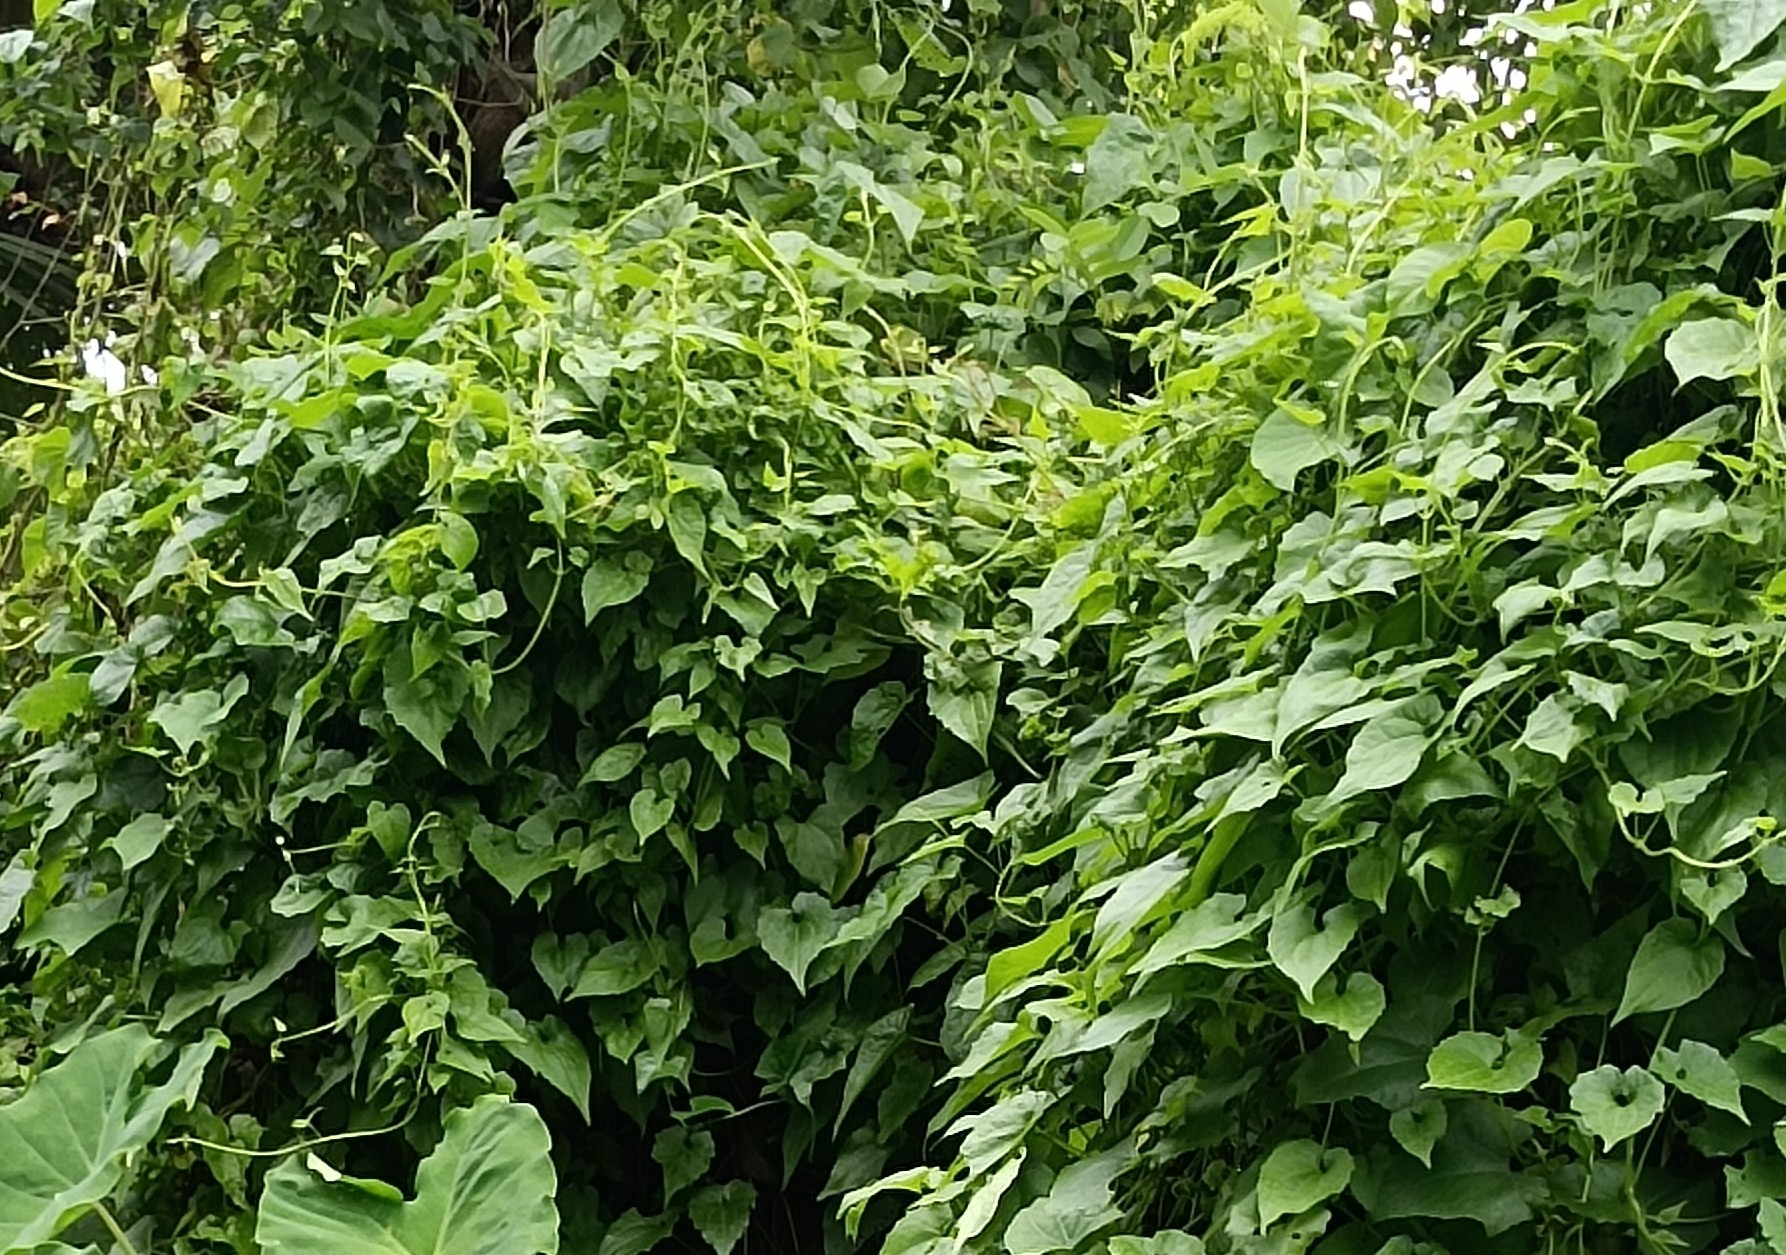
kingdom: Plantae
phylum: Tracheophyta
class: Magnoliopsida
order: Asterales
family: Asteraceae
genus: Mikania
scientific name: Mikania micrantha
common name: Mile-a-minute
